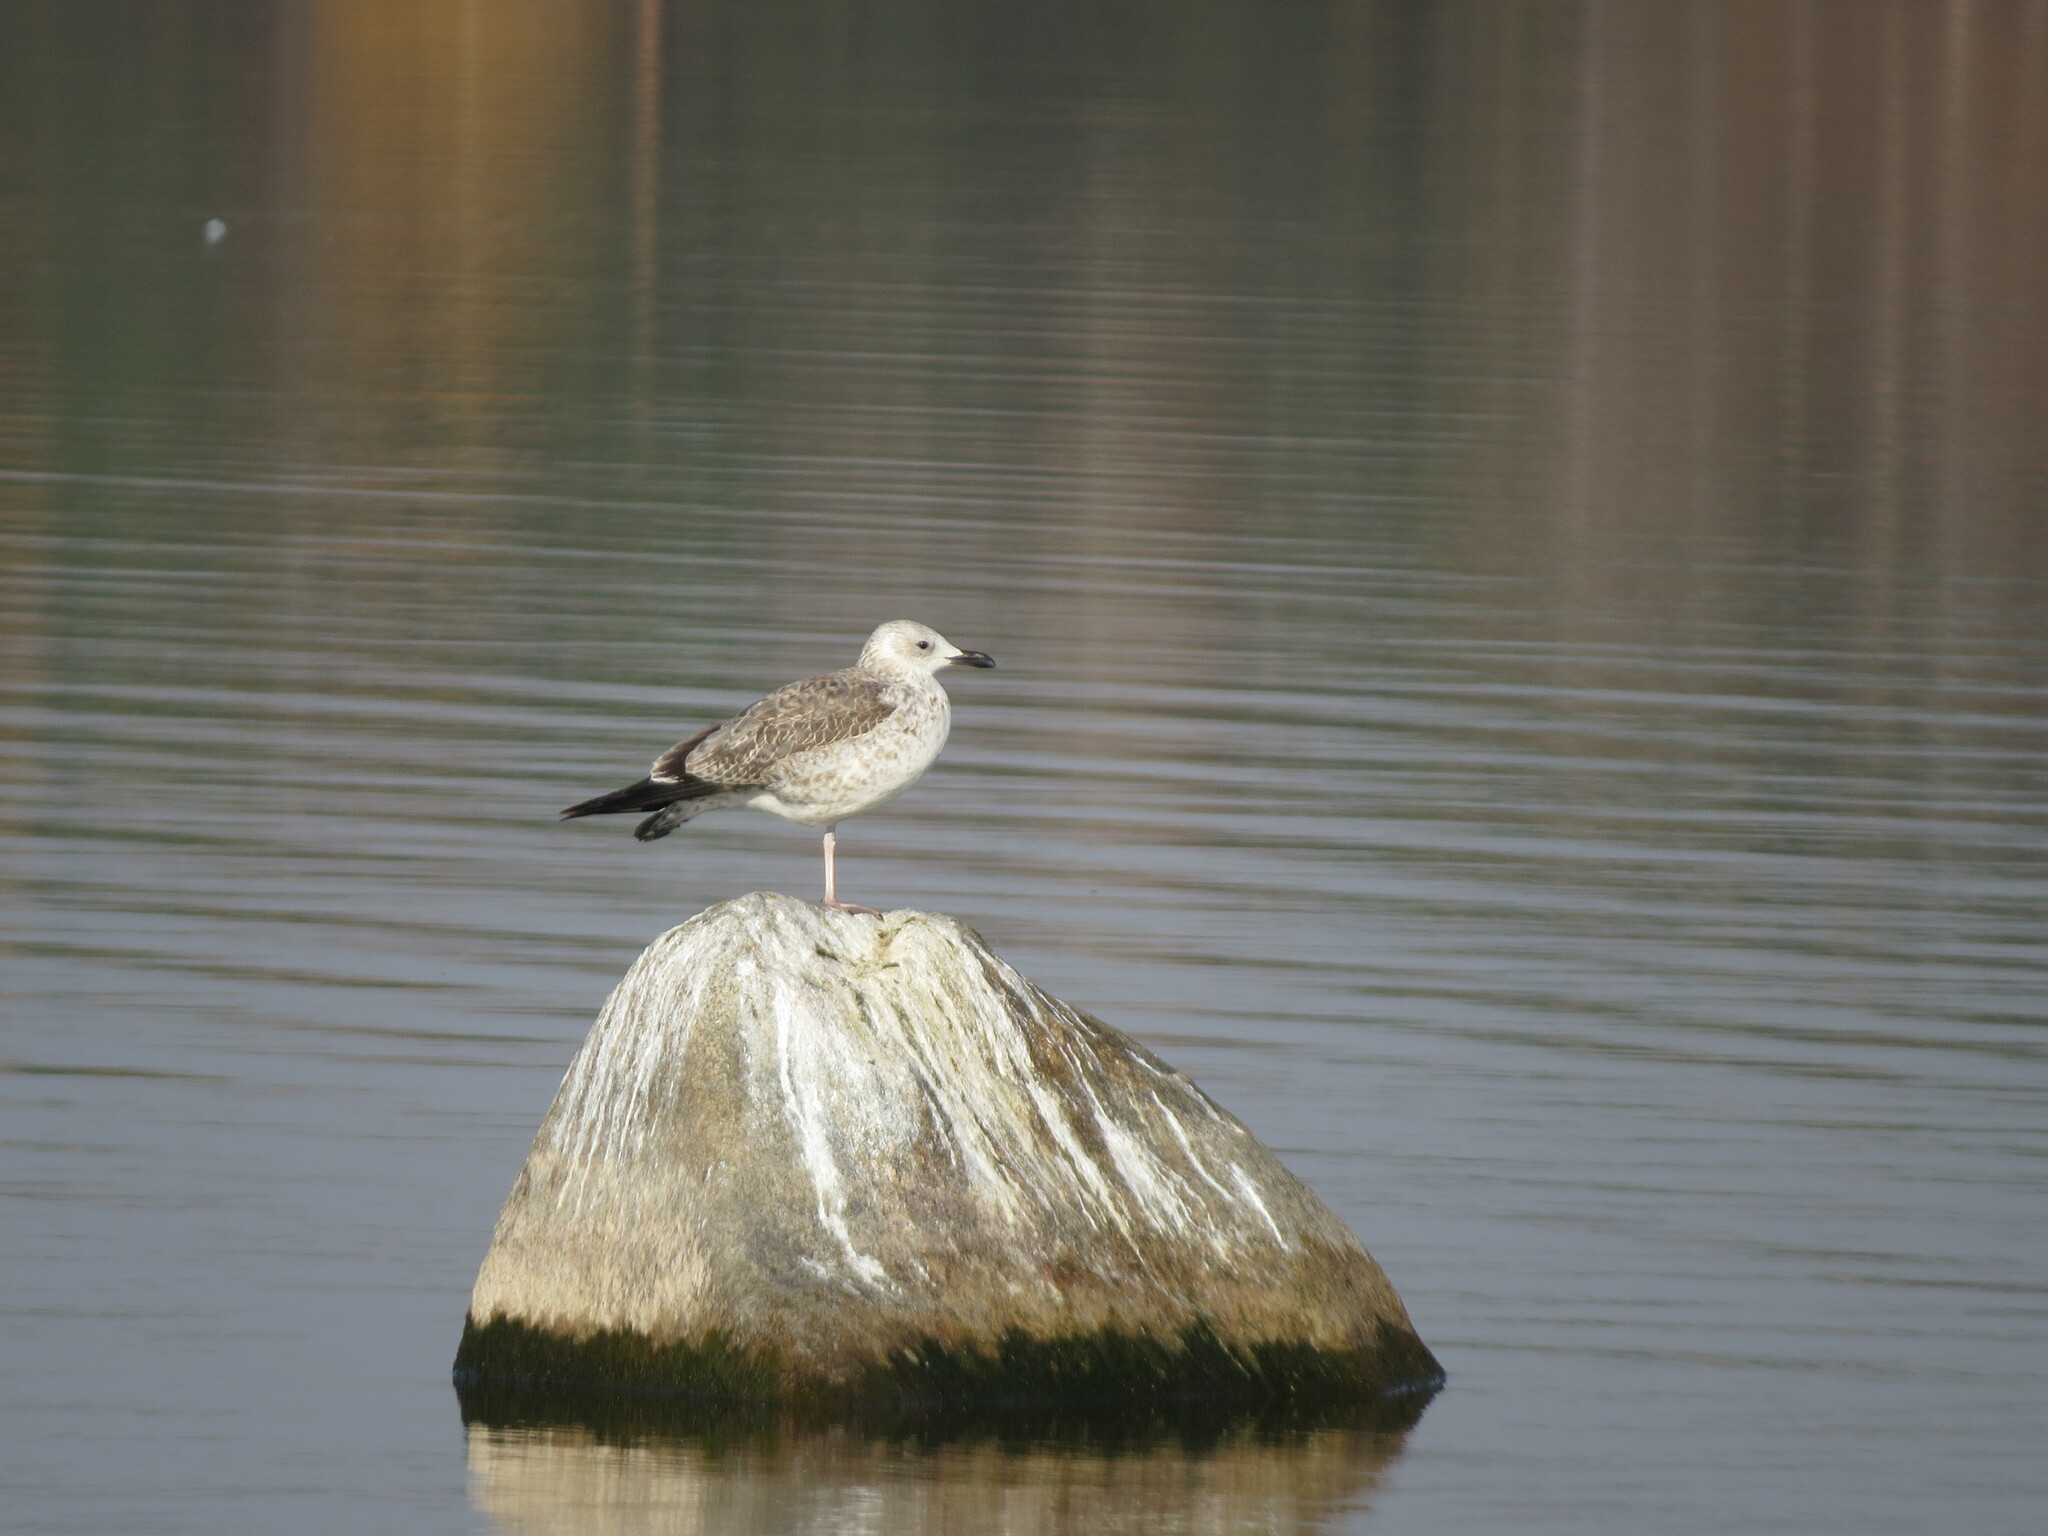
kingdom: Animalia
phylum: Chordata
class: Aves
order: Charadriiformes
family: Laridae
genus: Larus
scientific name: Larus fuscus
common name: Lesser black-backed gull
